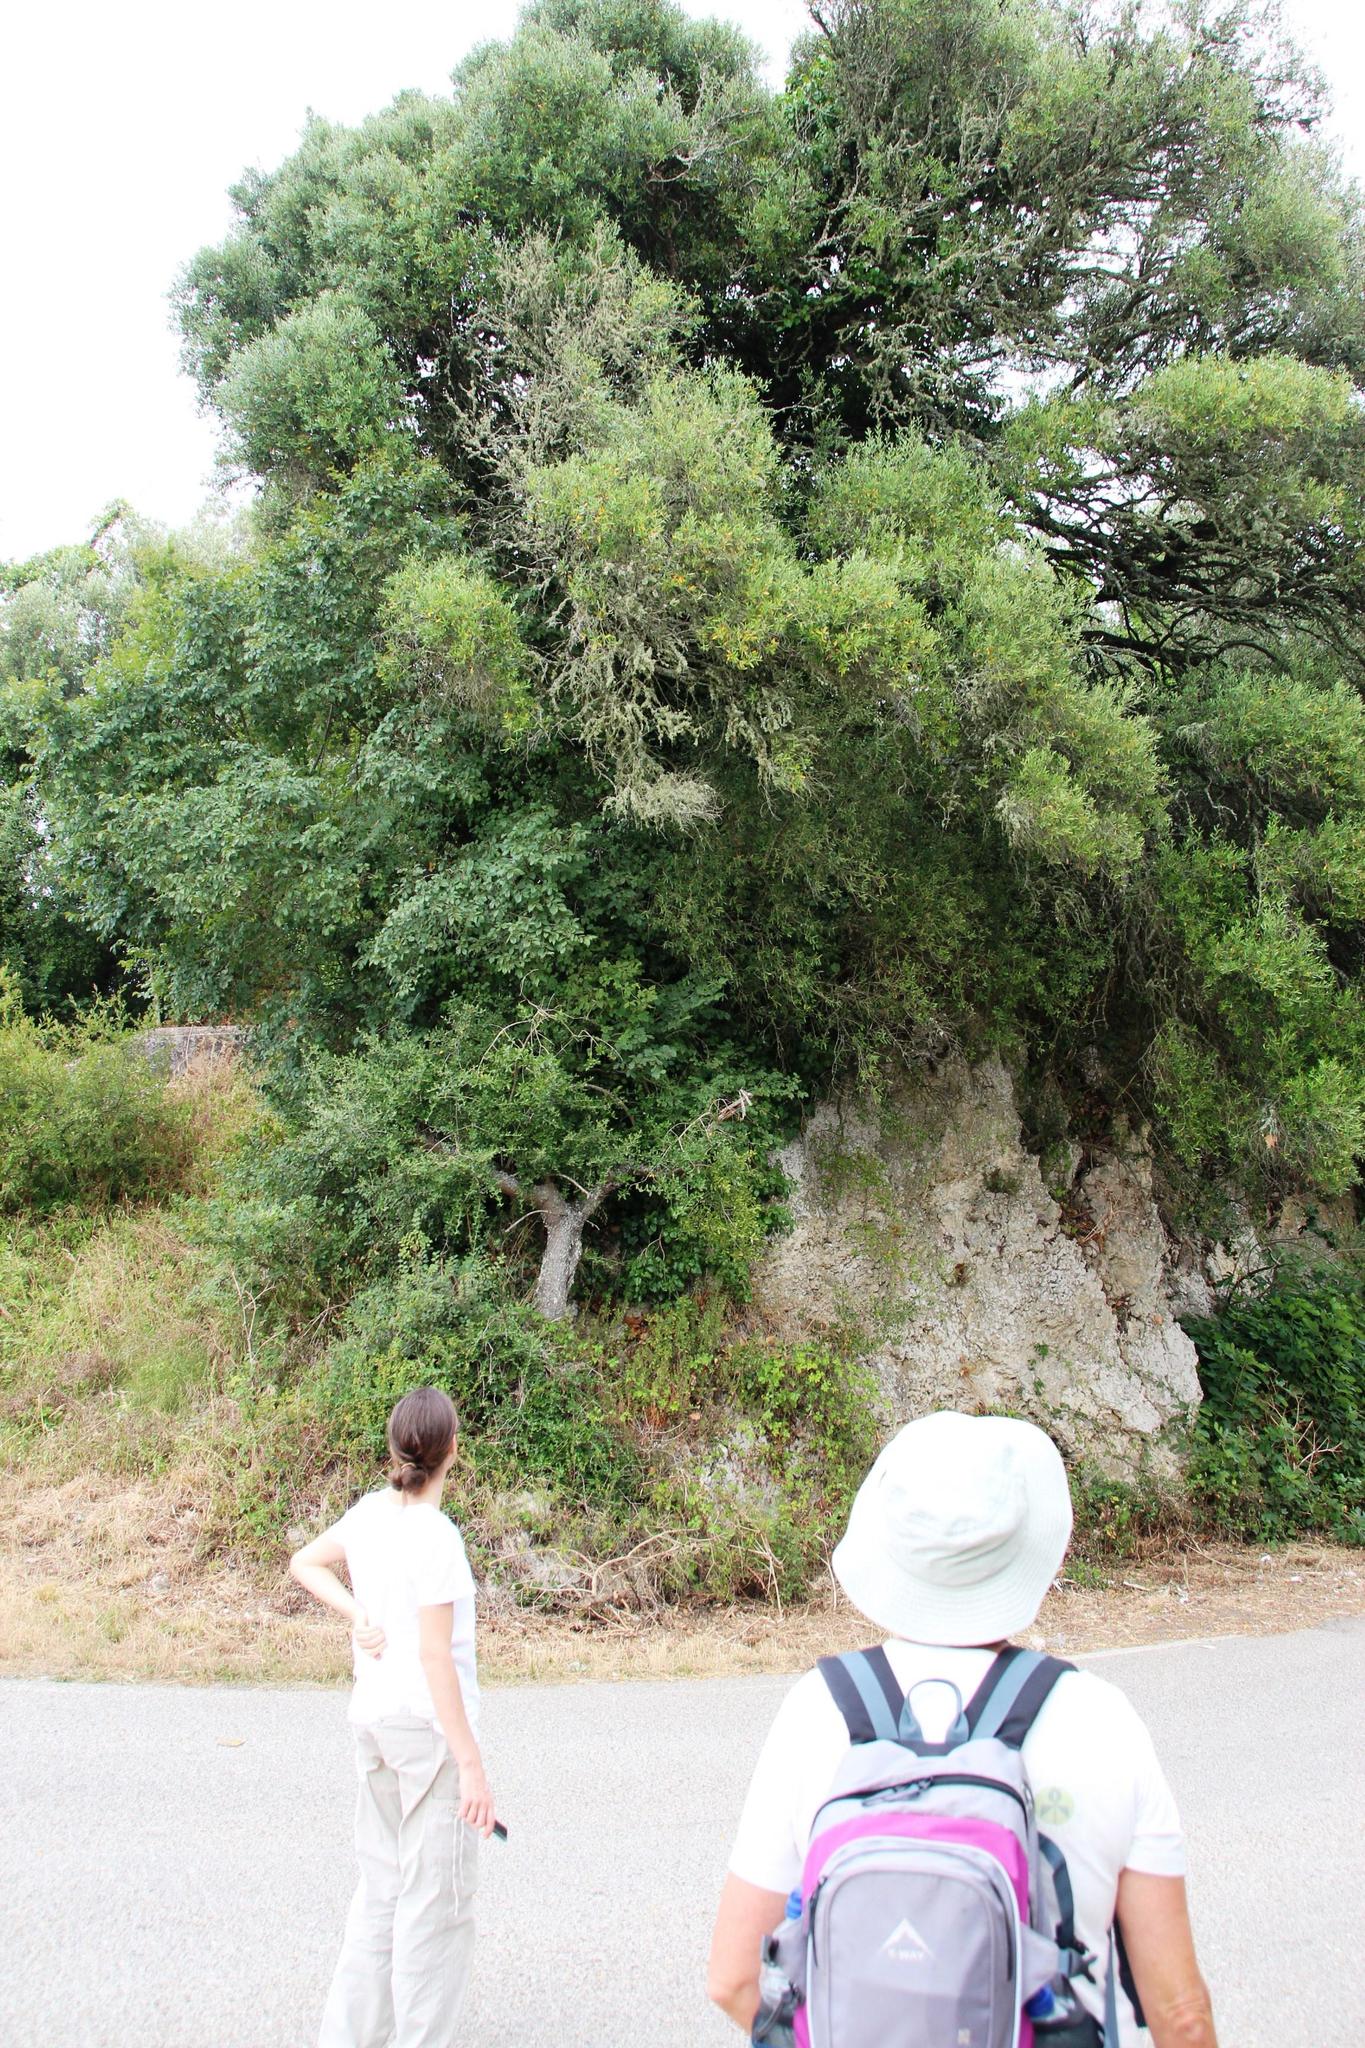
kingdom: Plantae
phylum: Tracheophyta
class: Magnoliopsida
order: Lamiales
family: Oleaceae
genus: Olea
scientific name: Olea europaea
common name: Olive
